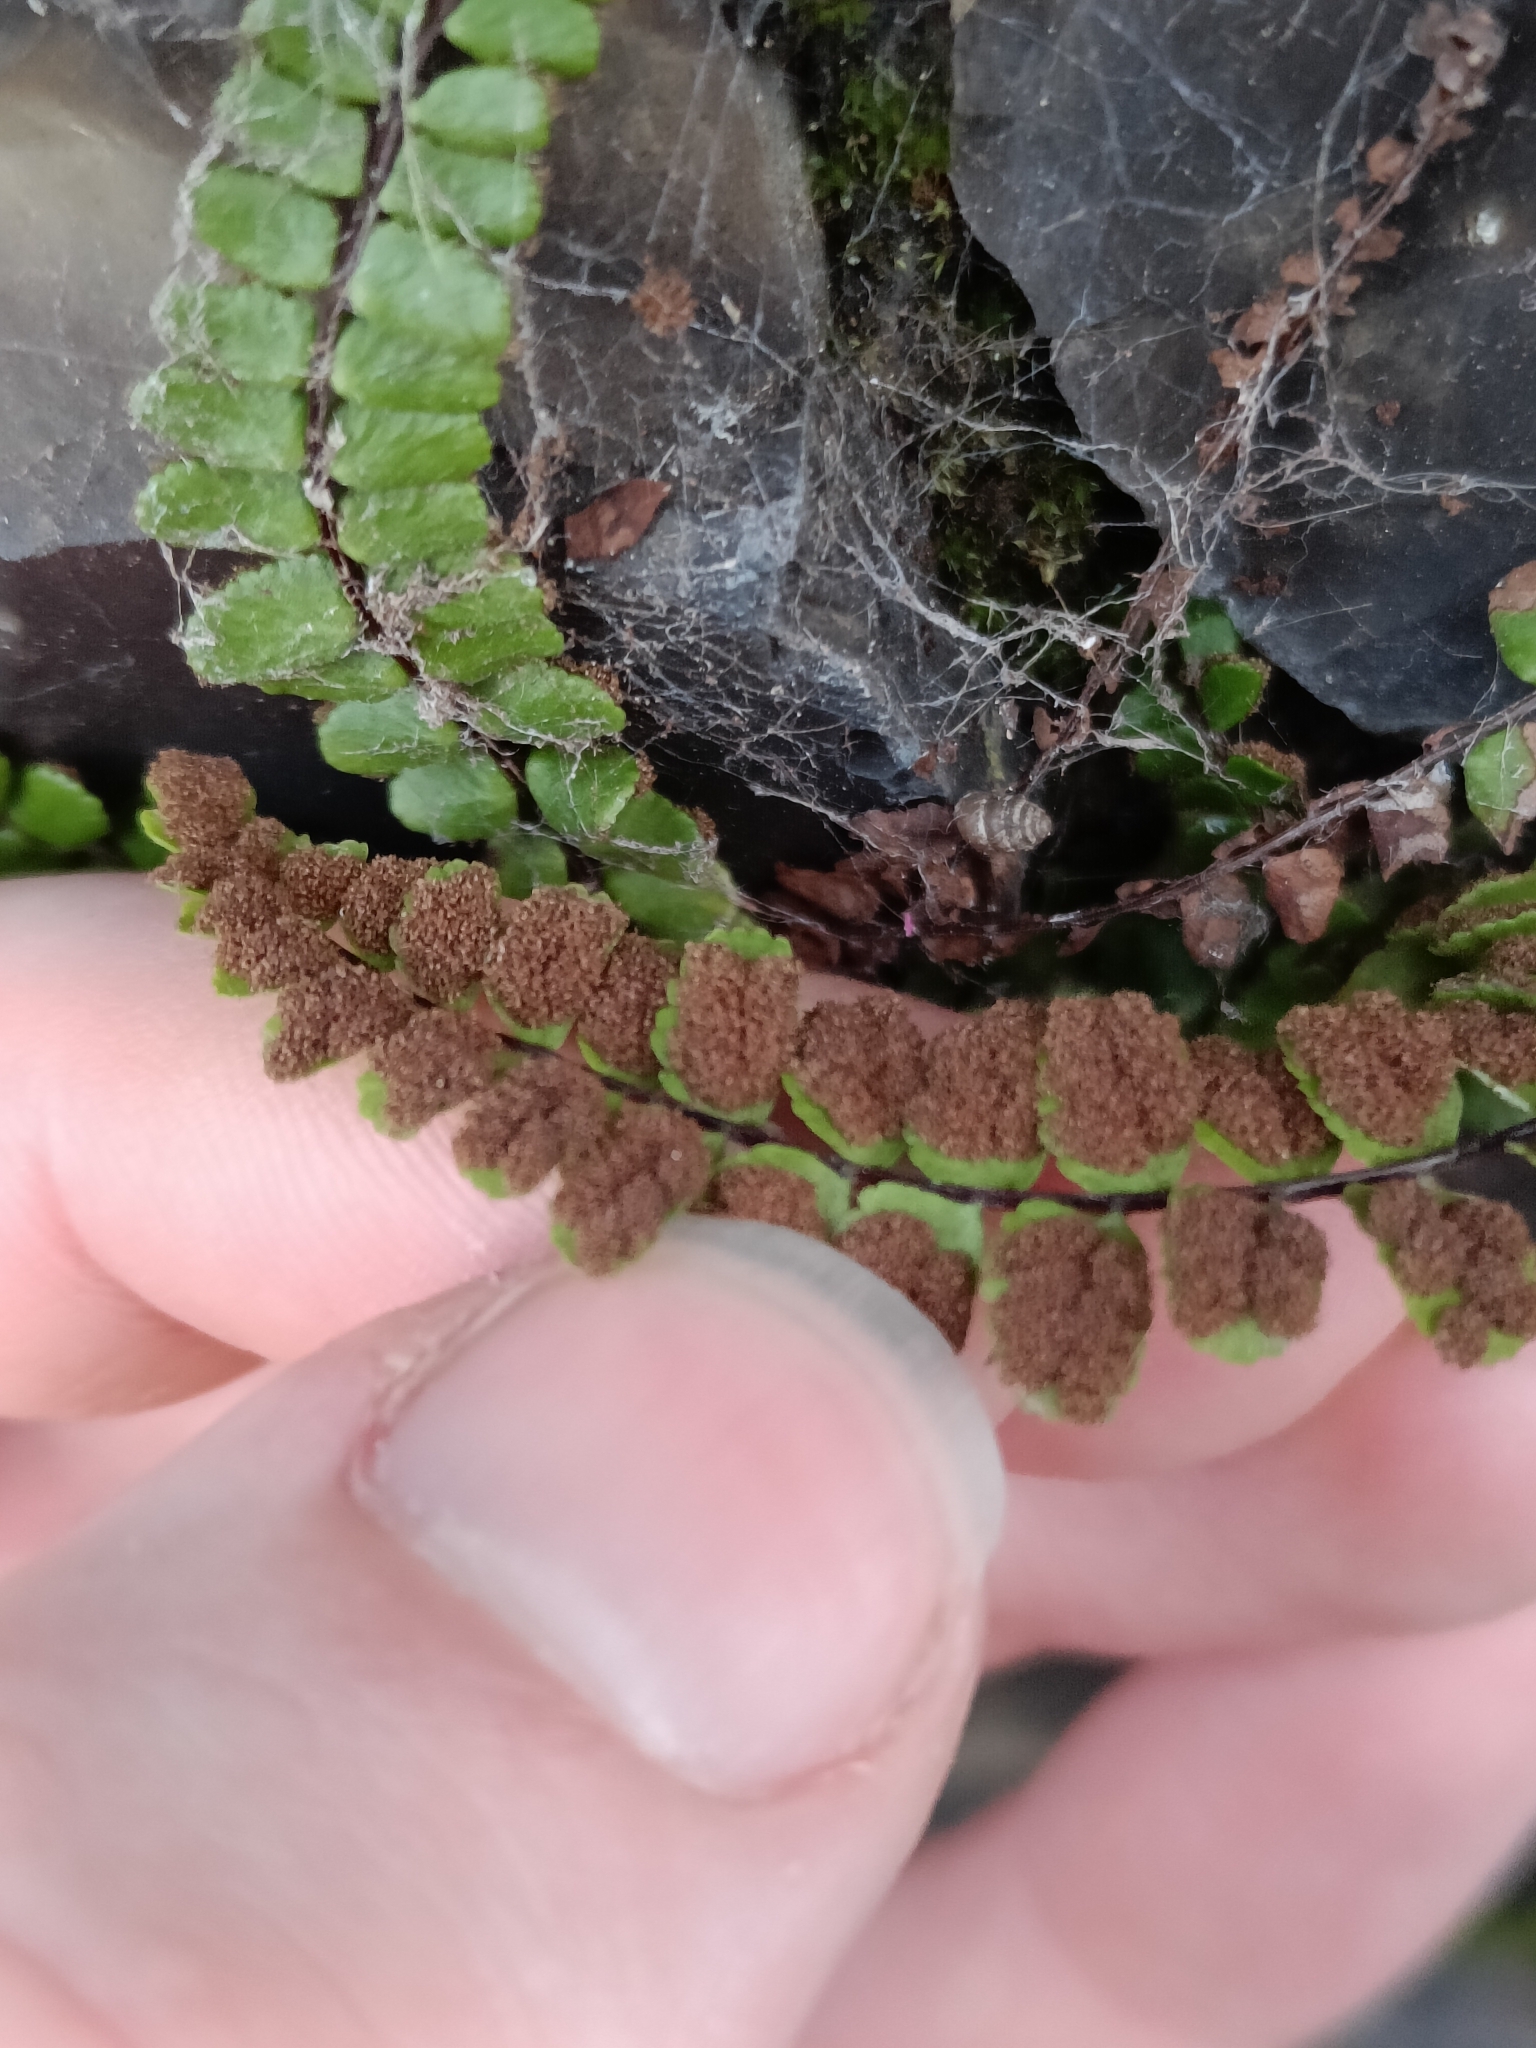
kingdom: Plantae
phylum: Tracheophyta
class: Polypodiopsida
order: Polypodiales
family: Aspleniaceae
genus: Asplenium
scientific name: Asplenium trichomanes
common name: Maidenhair spleenwort
